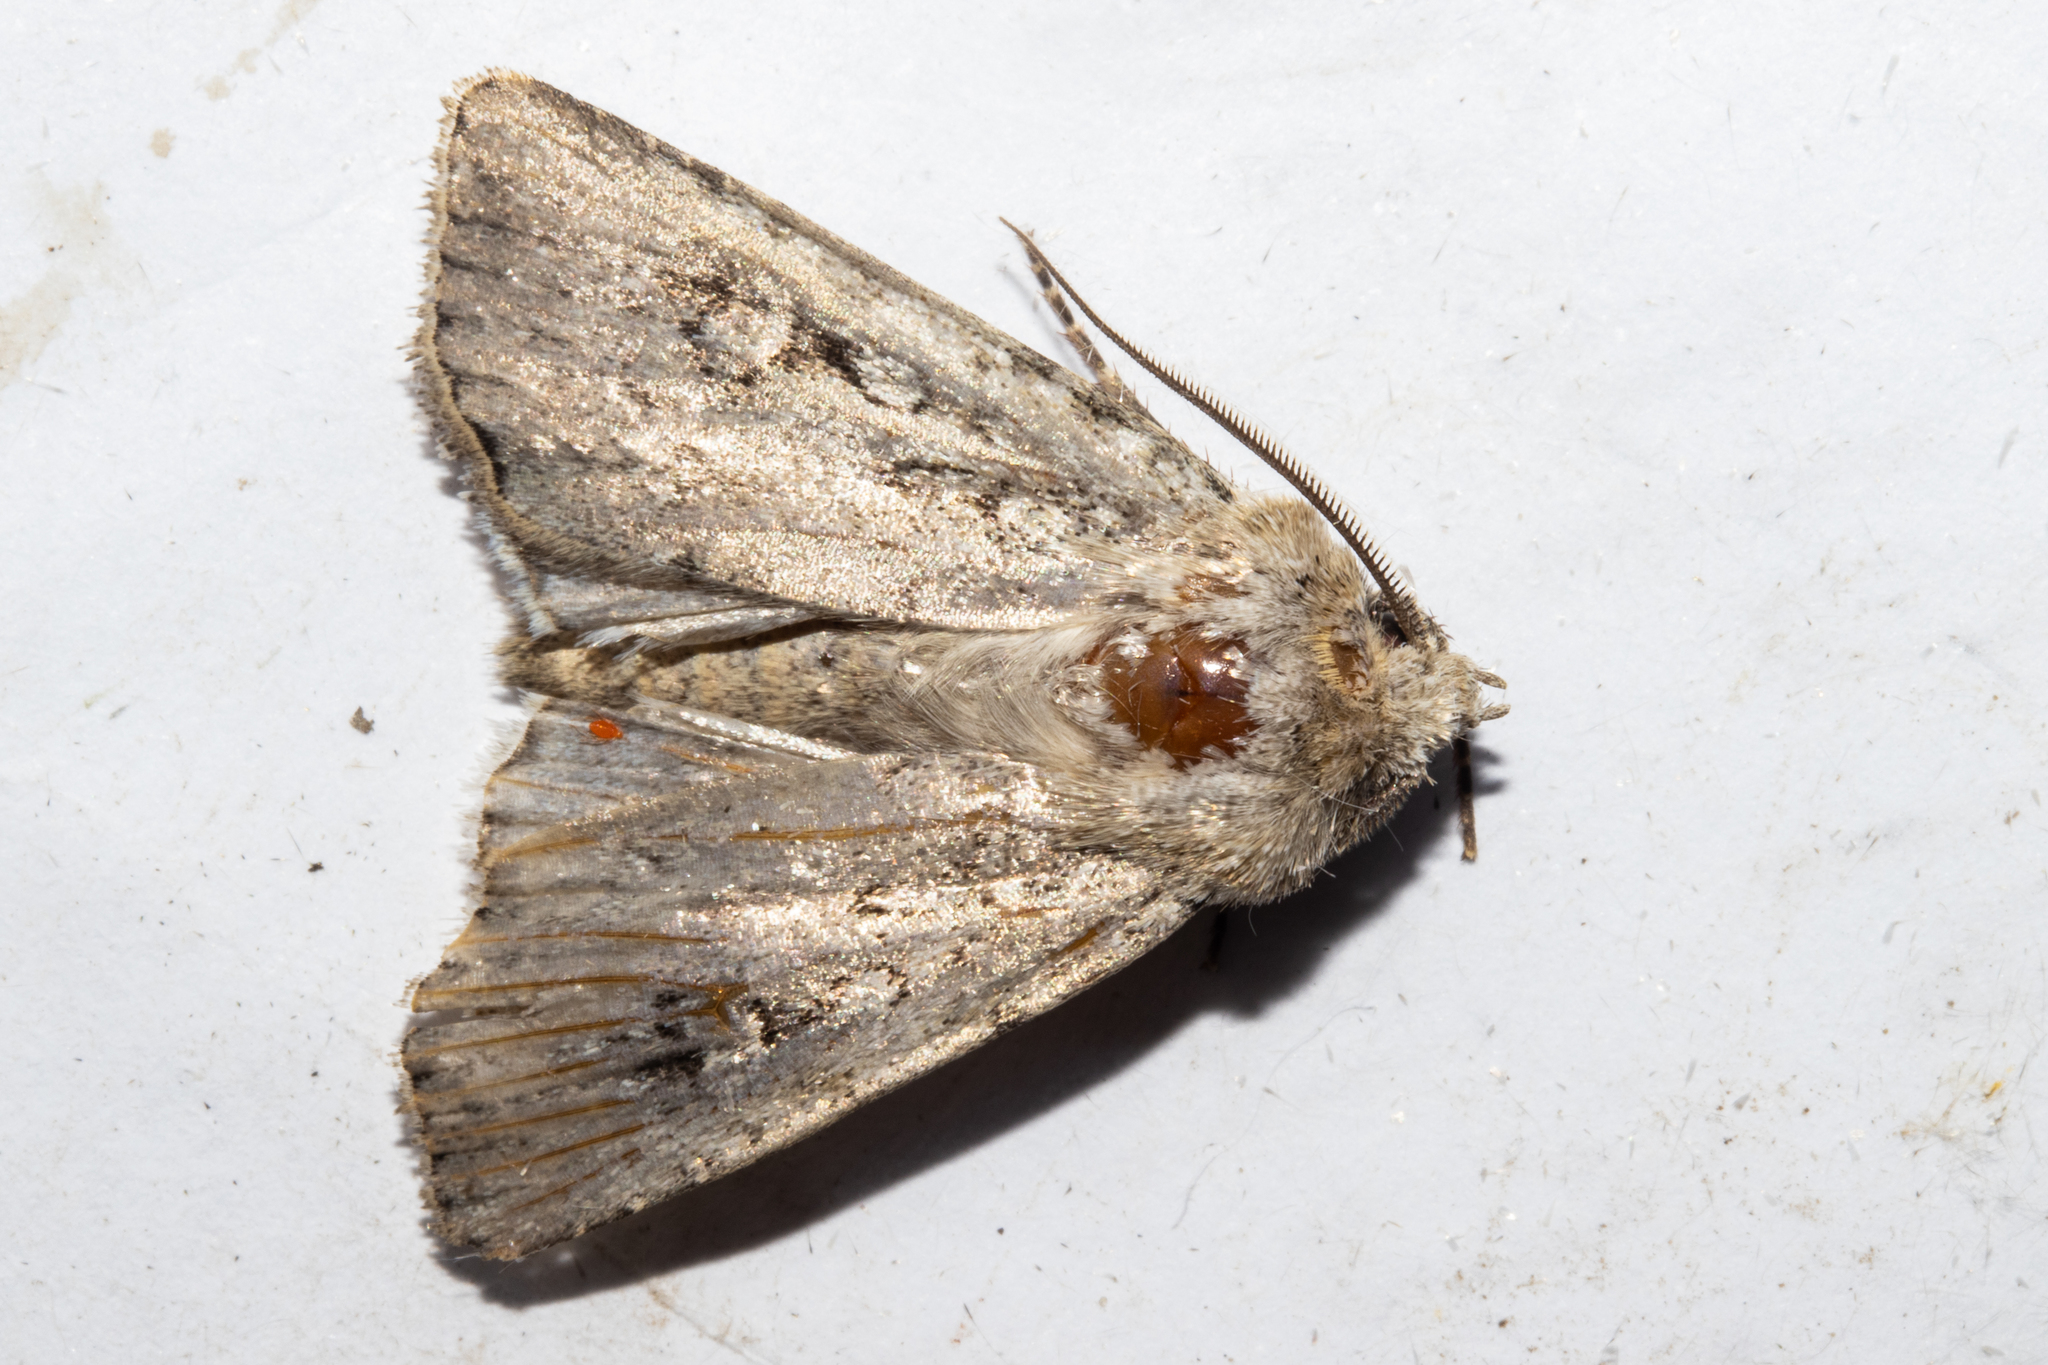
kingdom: Animalia
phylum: Arthropoda
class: Insecta
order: Lepidoptera
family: Noctuidae
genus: Agrotis
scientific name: Agrotis admirationis
